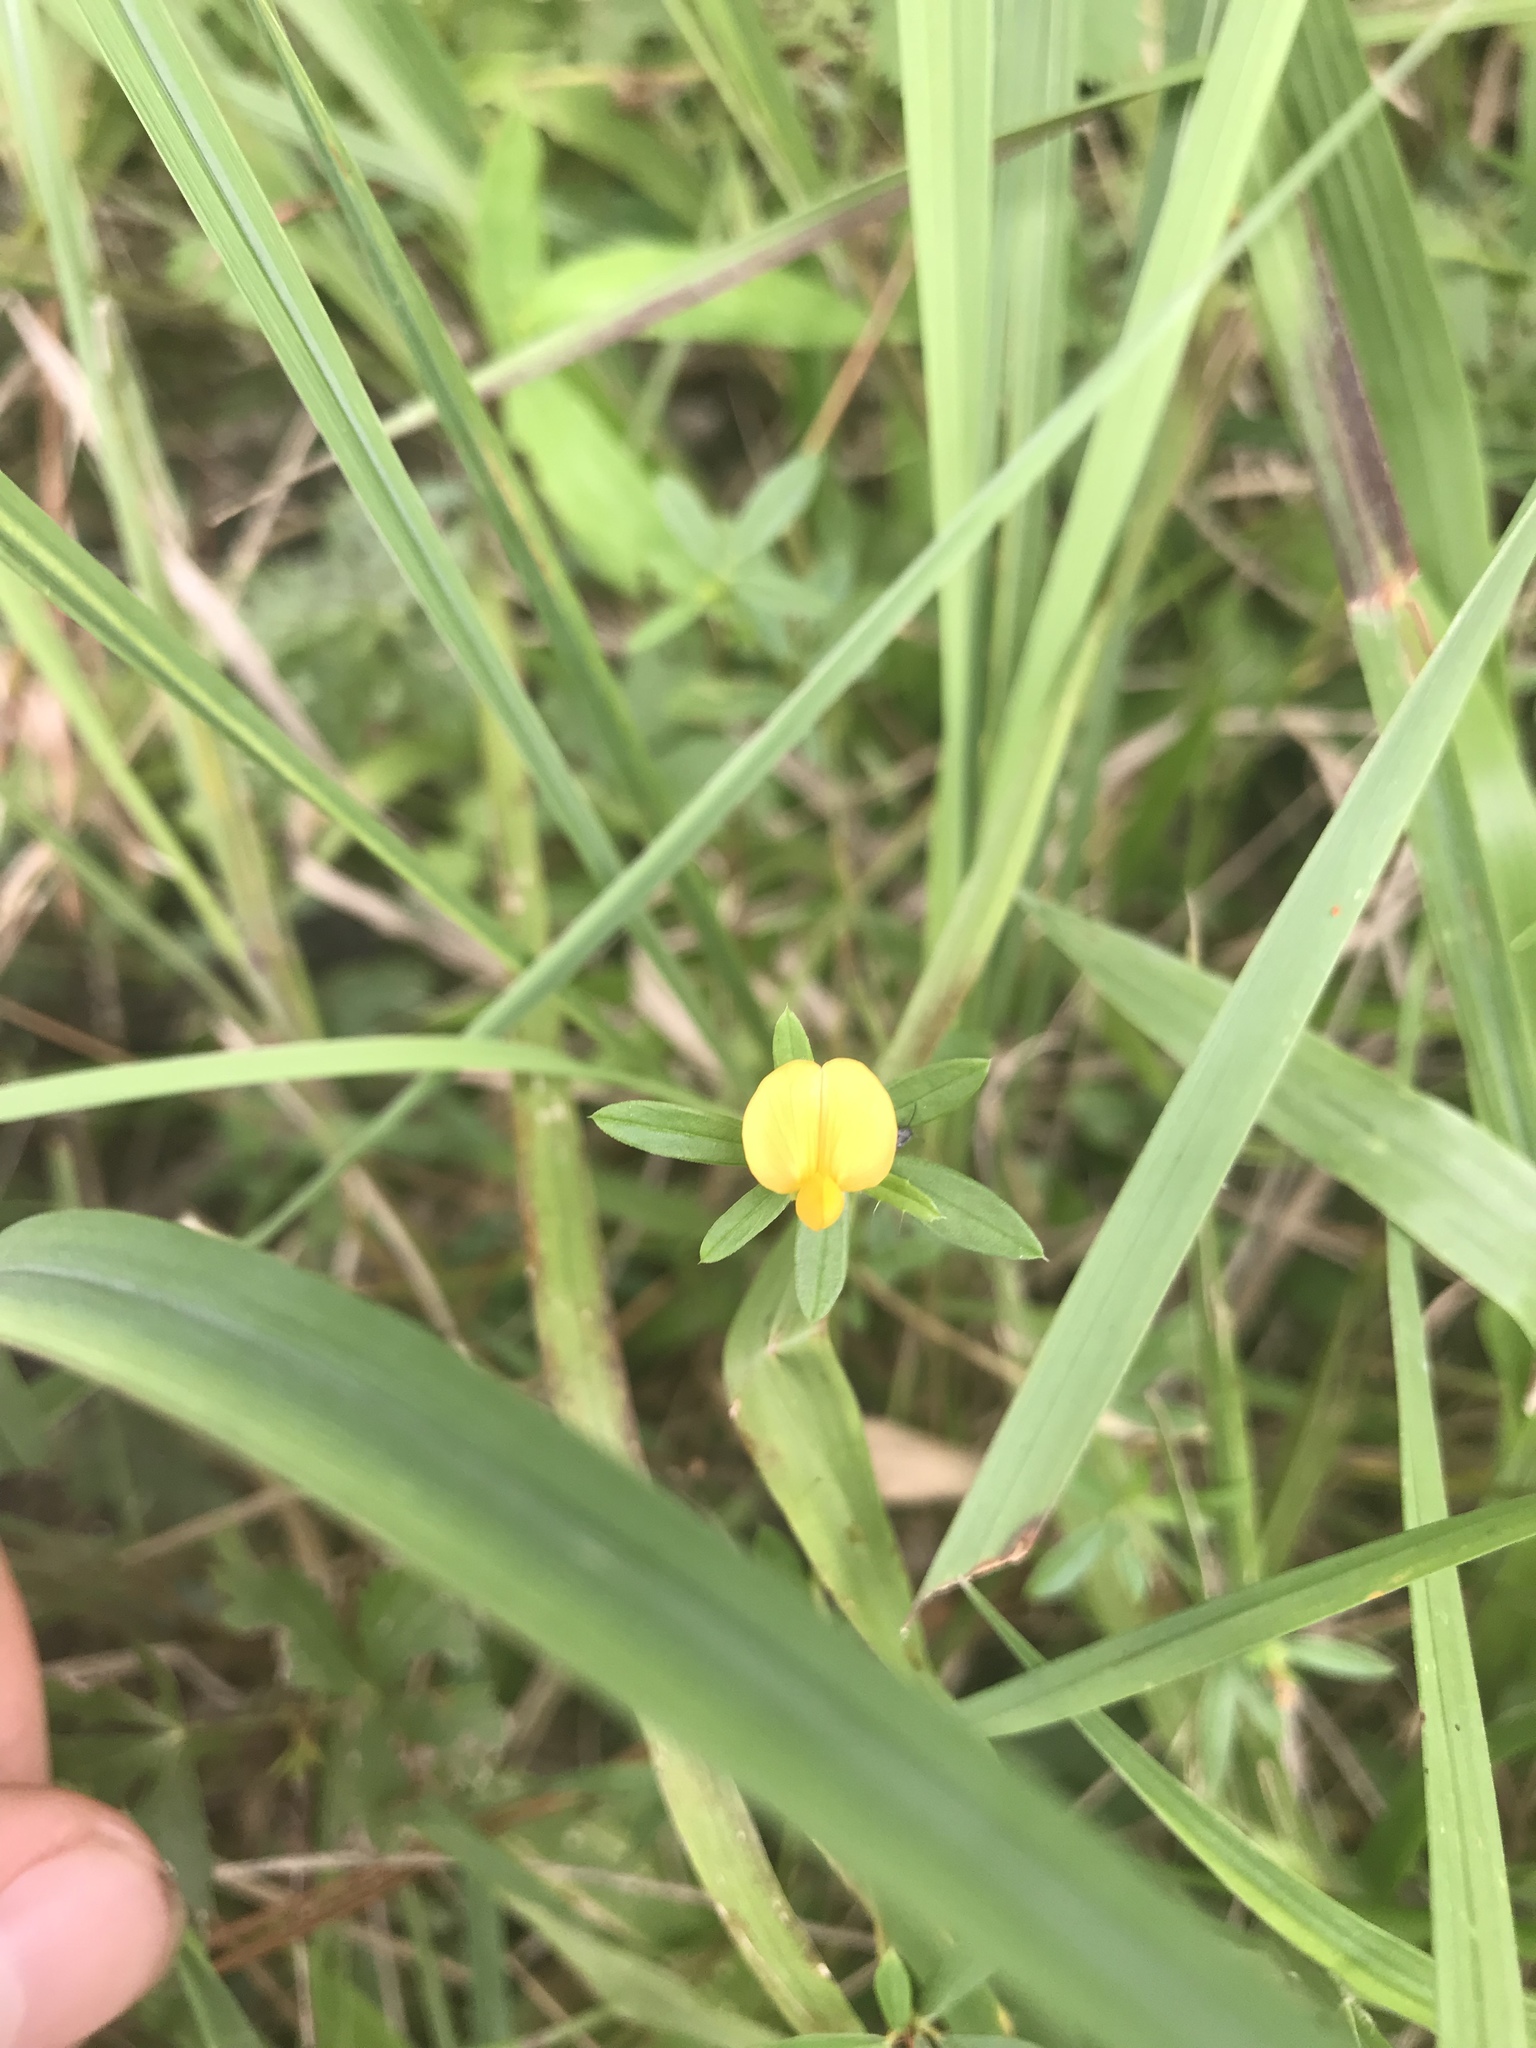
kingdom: Plantae
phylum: Tracheophyta
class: Magnoliopsida
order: Fabales
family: Fabaceae
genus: Stylosanthes
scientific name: Stylosanthes biflora
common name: Two-flower pencil-flower
